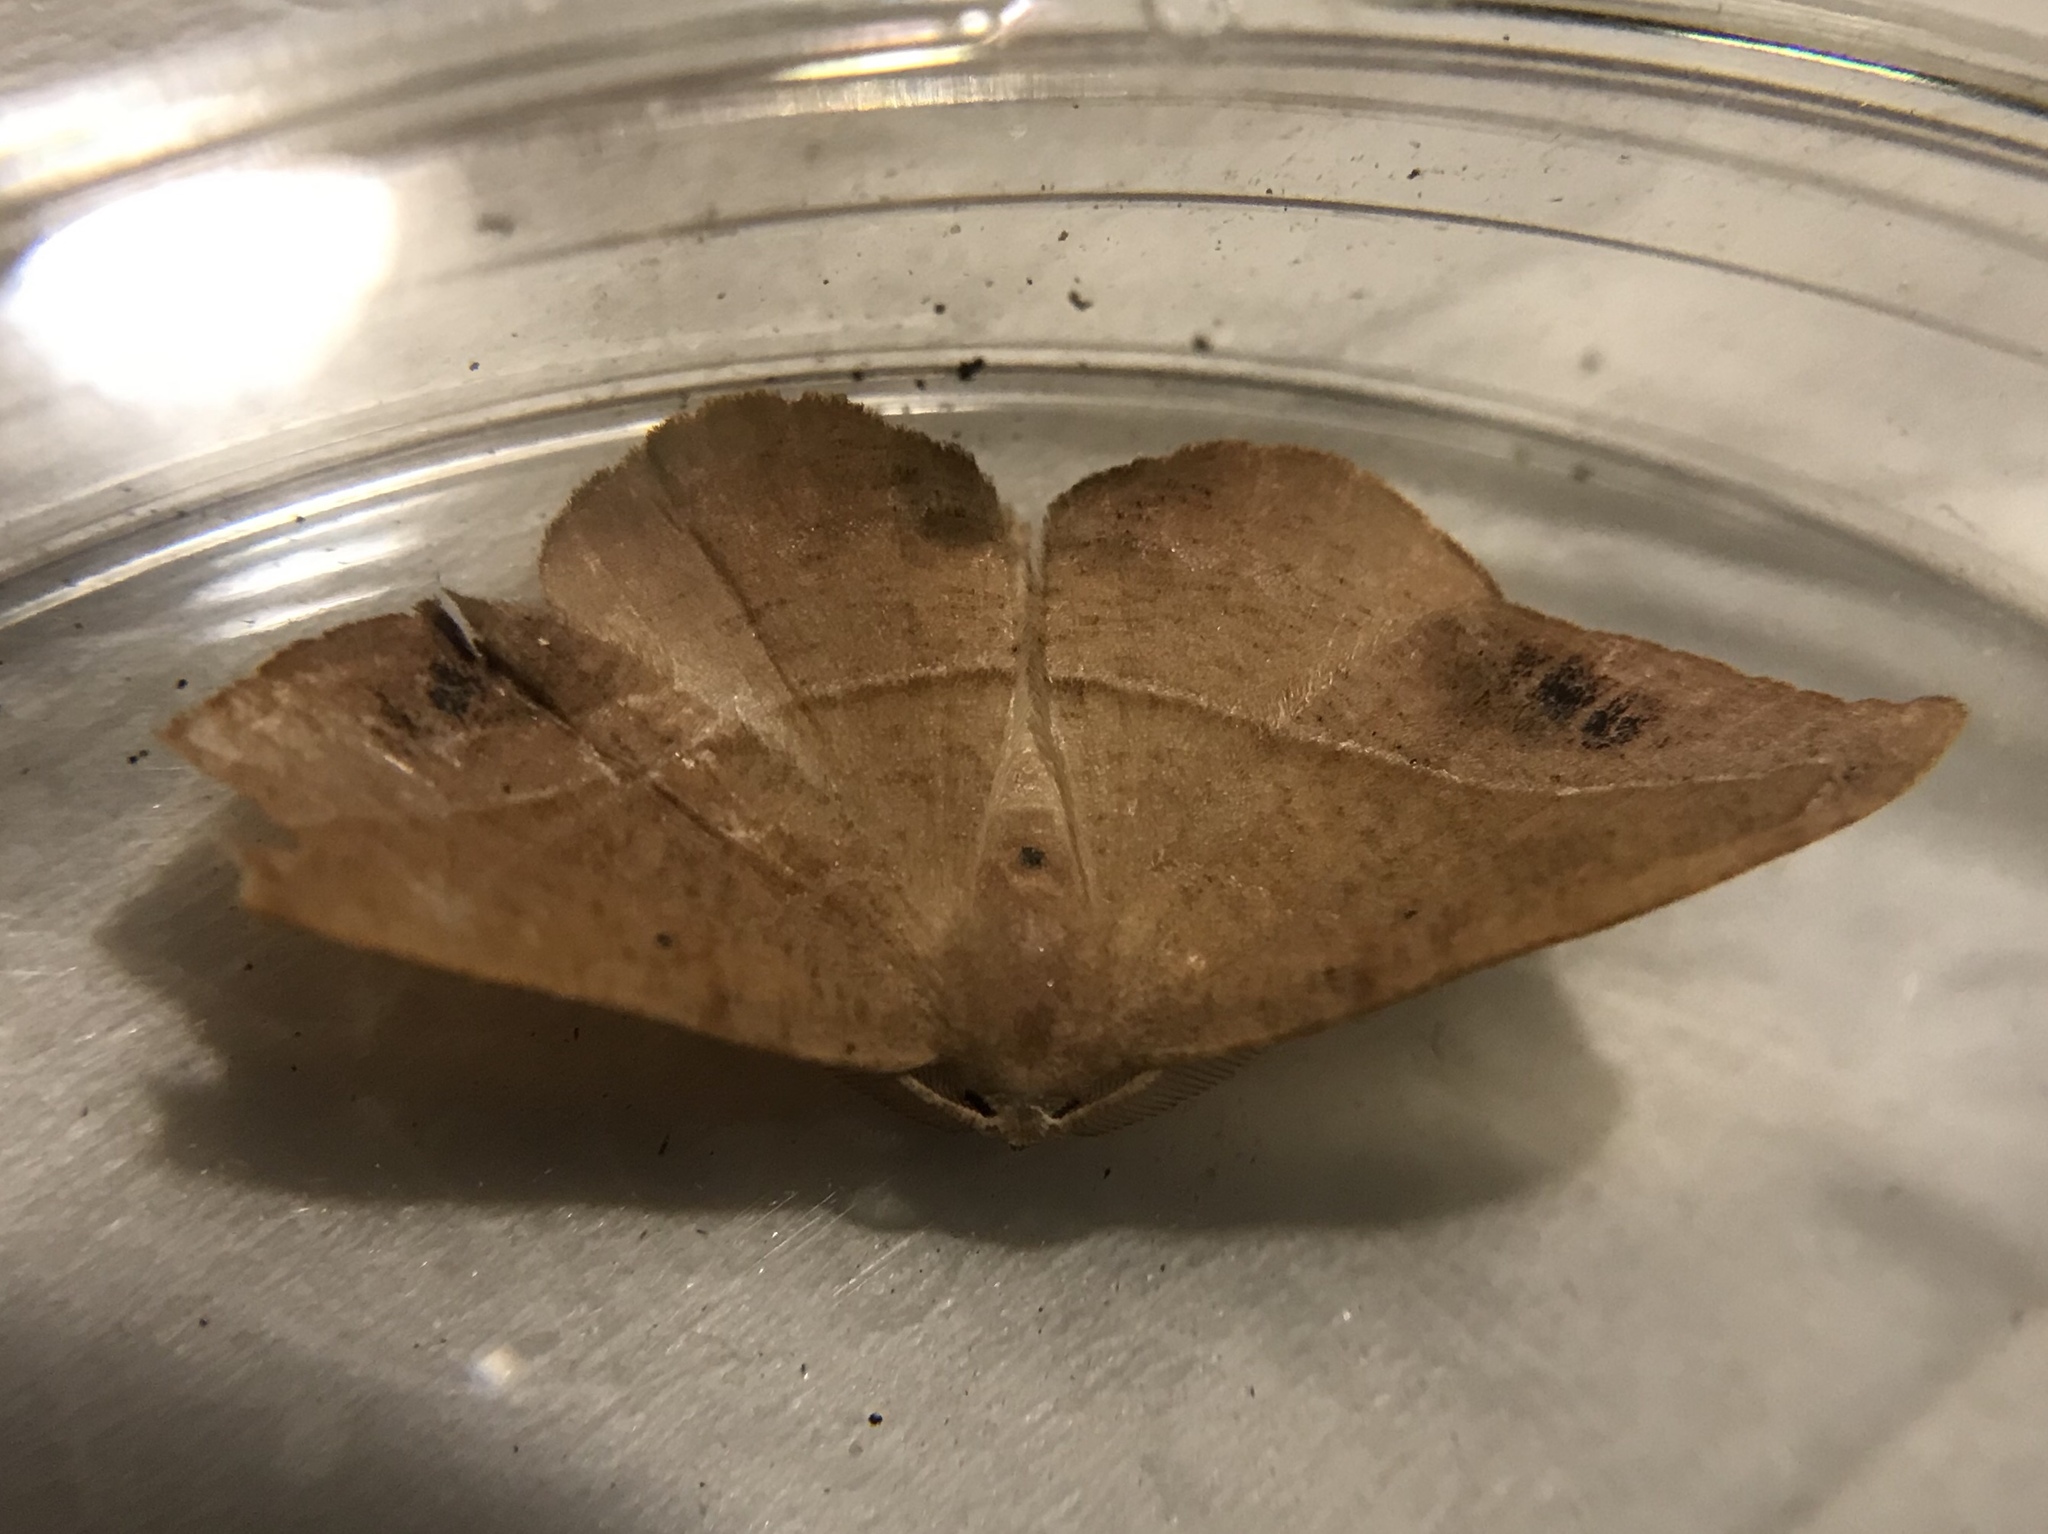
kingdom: Animalia
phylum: Arthropoda
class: Insecta
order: Lepidoptera
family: Geometridae
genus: Patalene
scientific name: Patalene olyzonaria
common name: Juniper geometer moth
